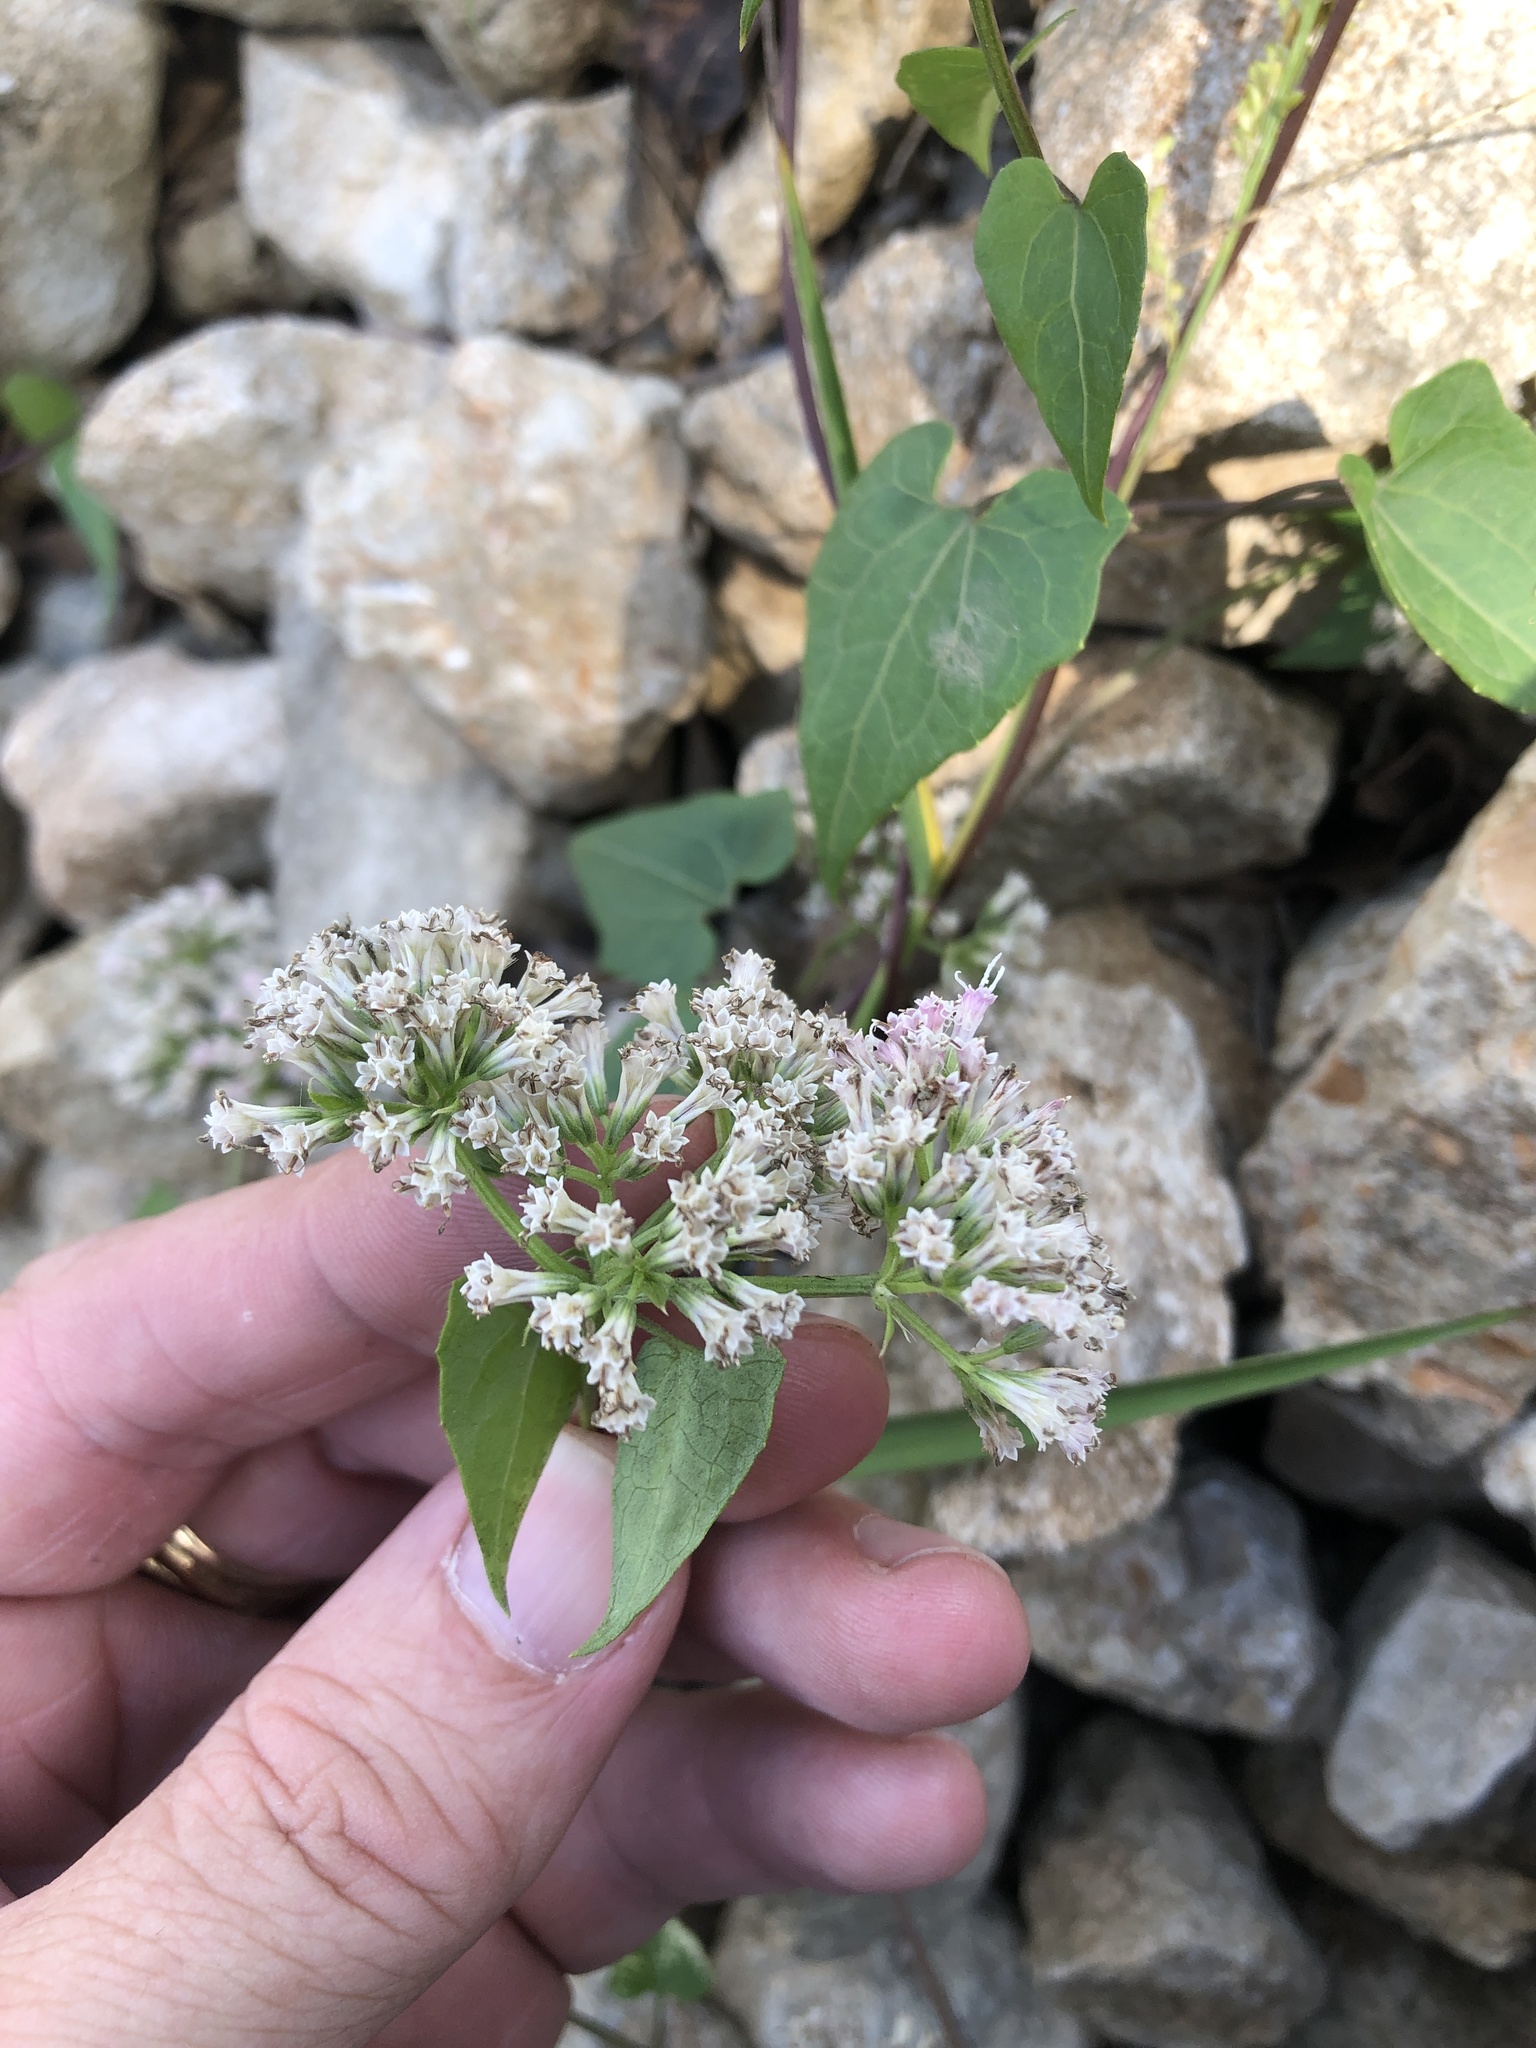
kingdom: Plantae
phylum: Tracheophyta
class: Magnoliopsida
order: Asterales
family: Asteraceae
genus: Mikania
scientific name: Mikania scandens
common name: Climbing hempvine
